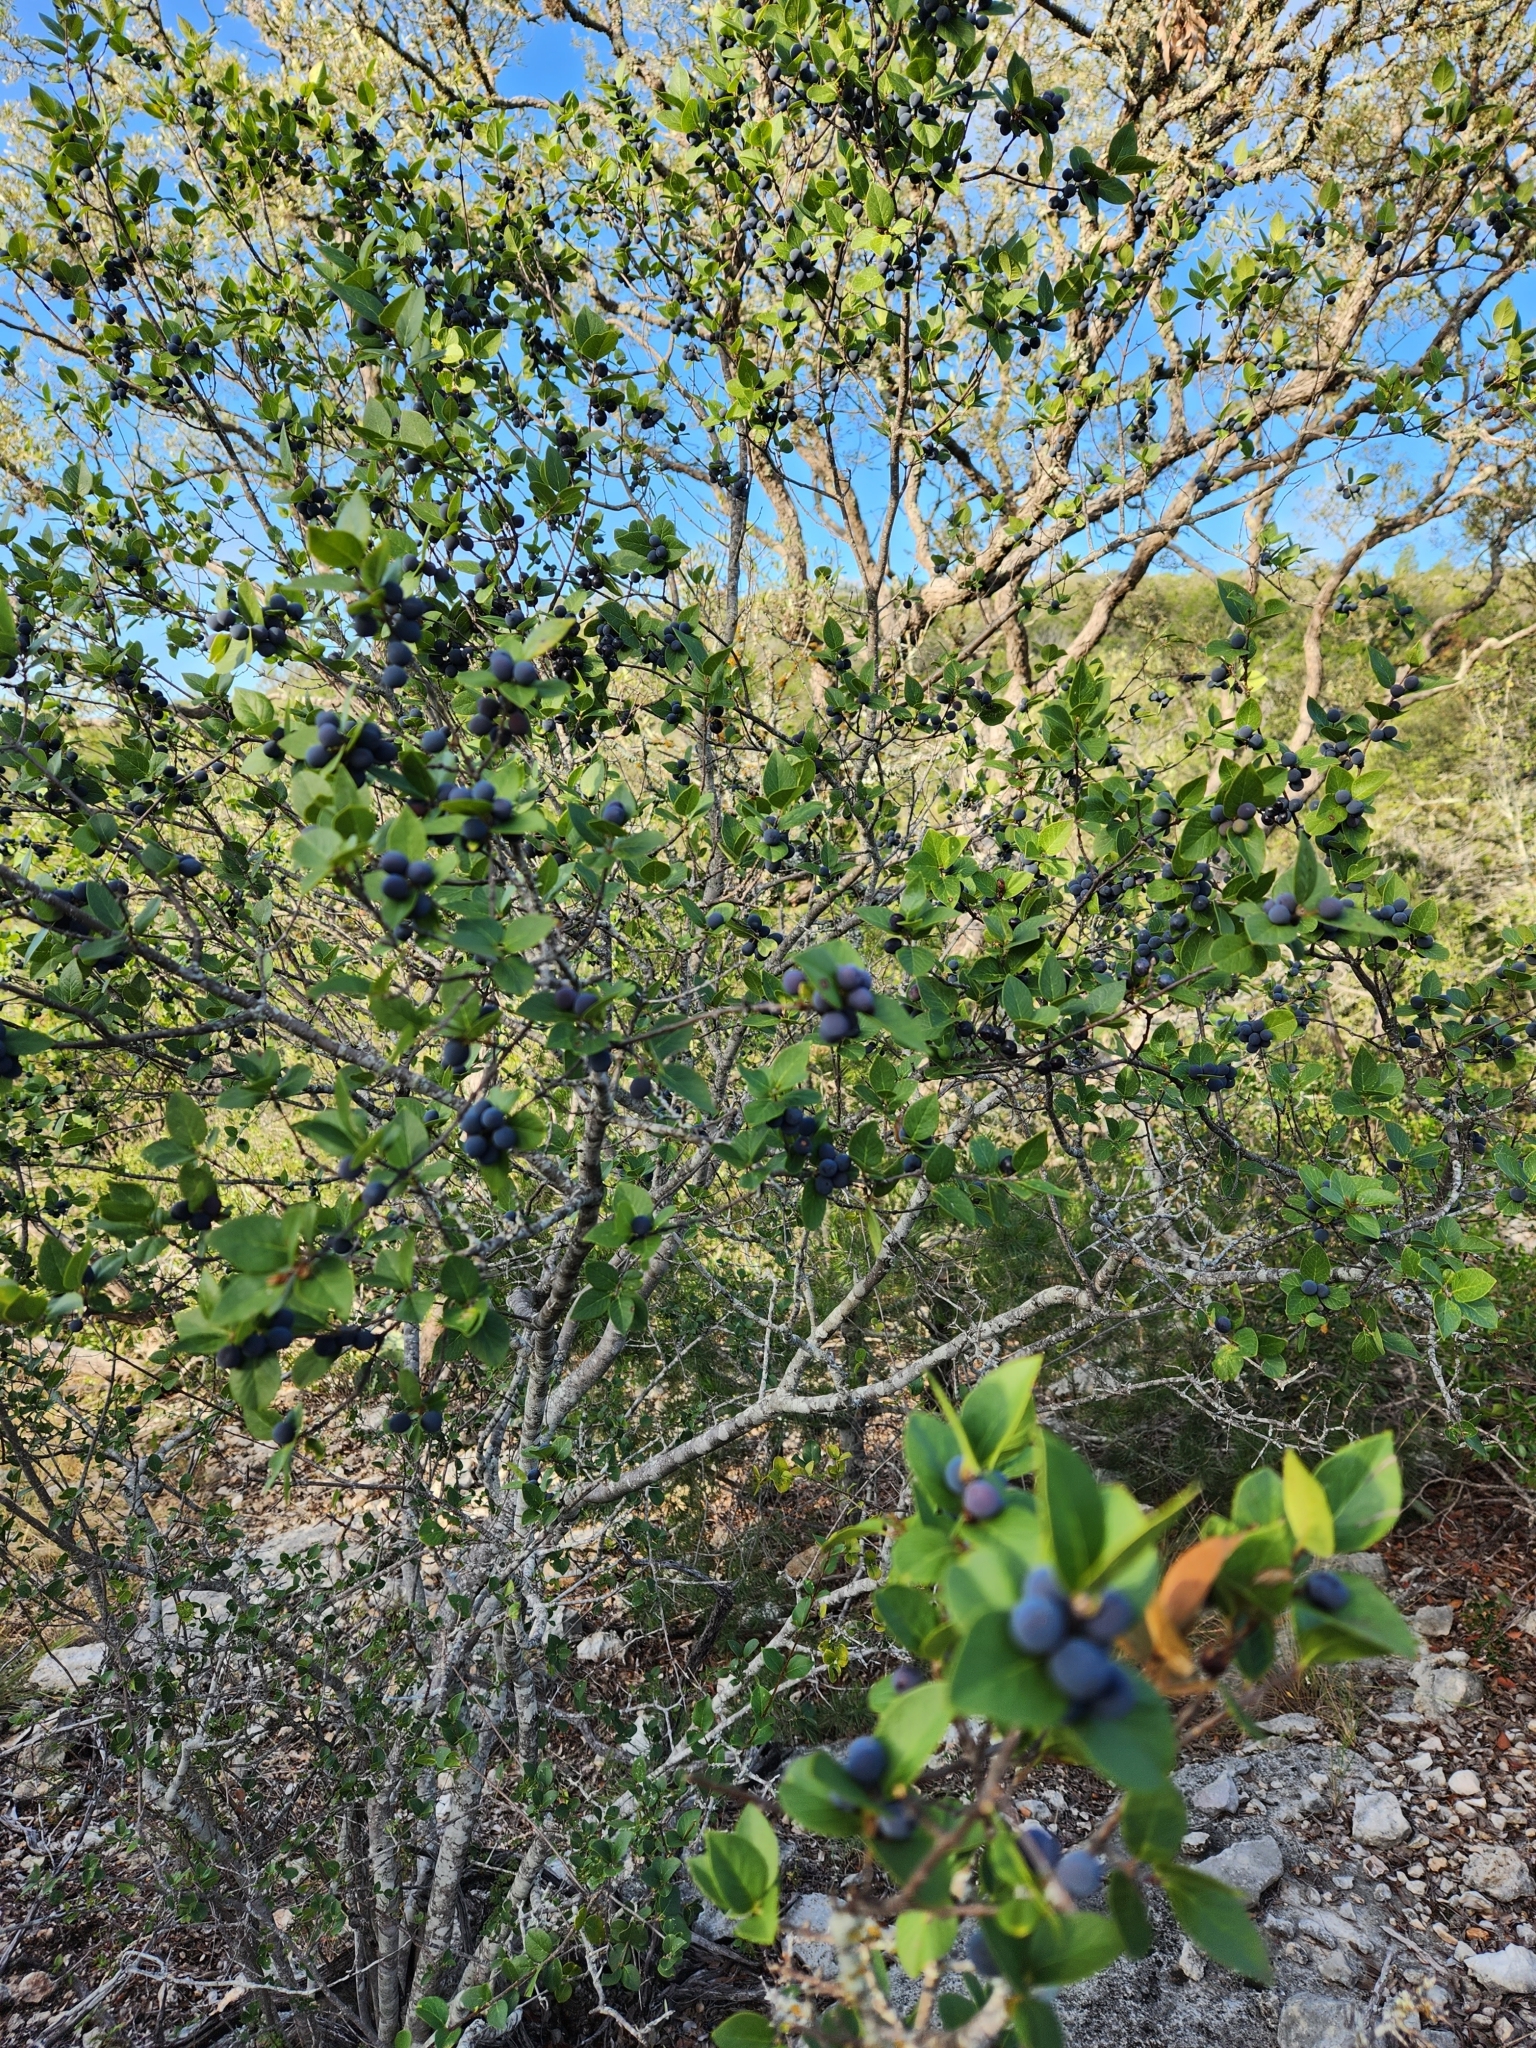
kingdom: Plantae
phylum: Tracheophyta
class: Magnoliopsida
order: Lamiales
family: Oleaceae
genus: Forestiera
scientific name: Forestiera reticulata
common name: Netleaf swamp-privet
